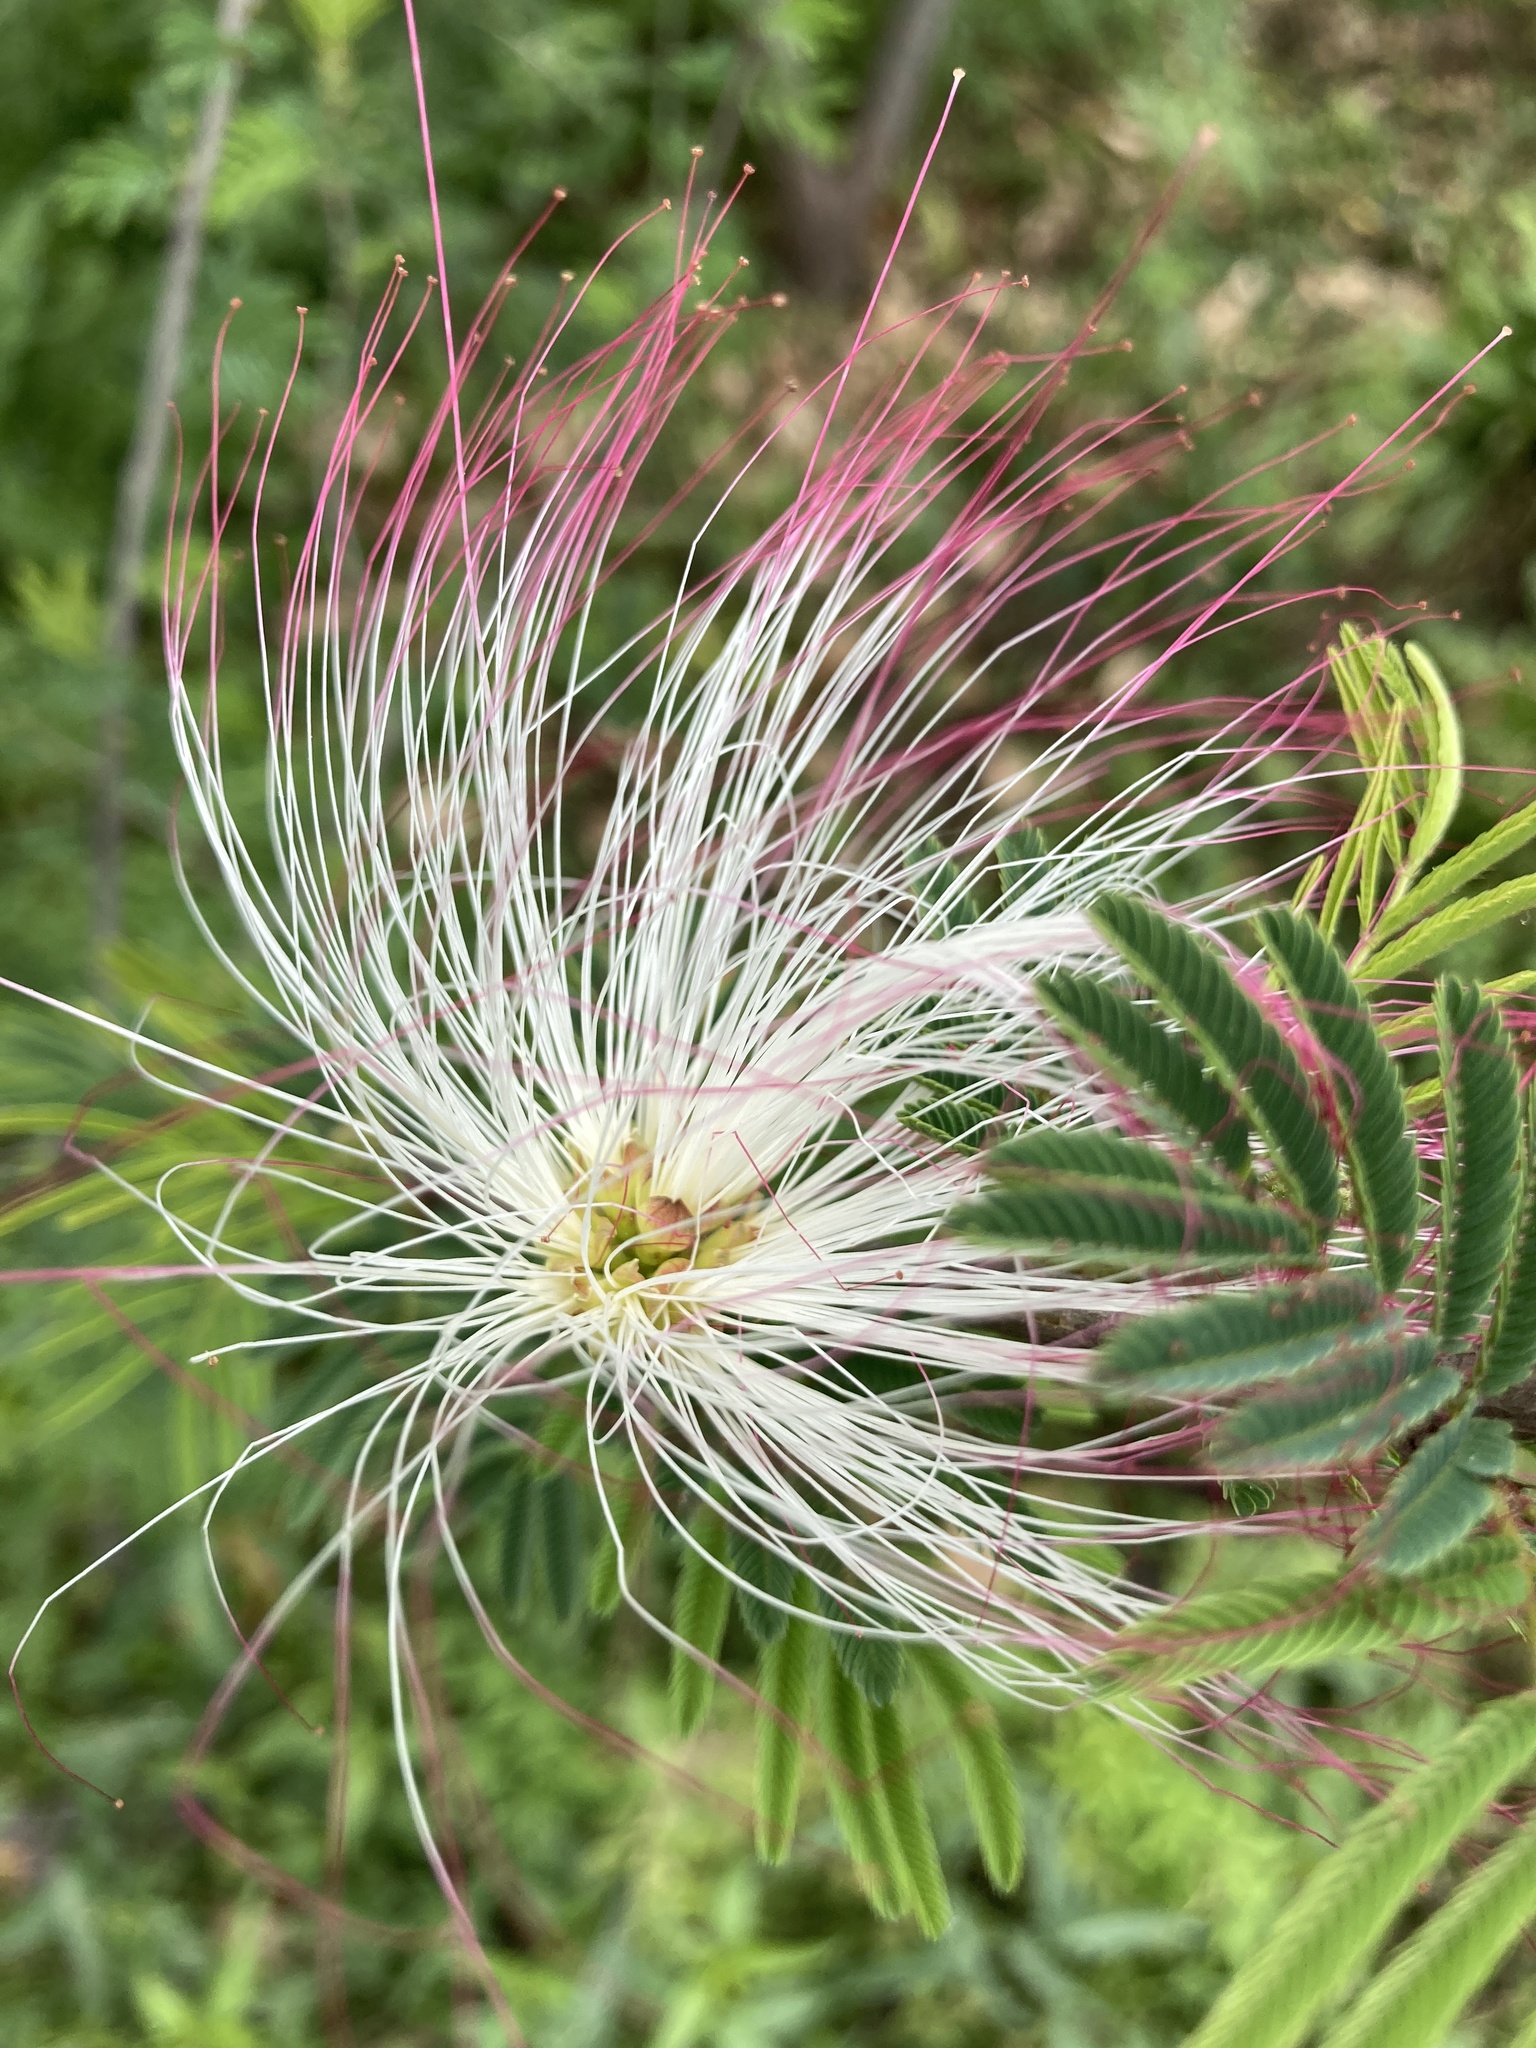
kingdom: Plantae
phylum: Tracheophyta
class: Magnoliopsida
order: Fabales
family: Fabaceae
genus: Calliandra
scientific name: Calliandra parvifolia
